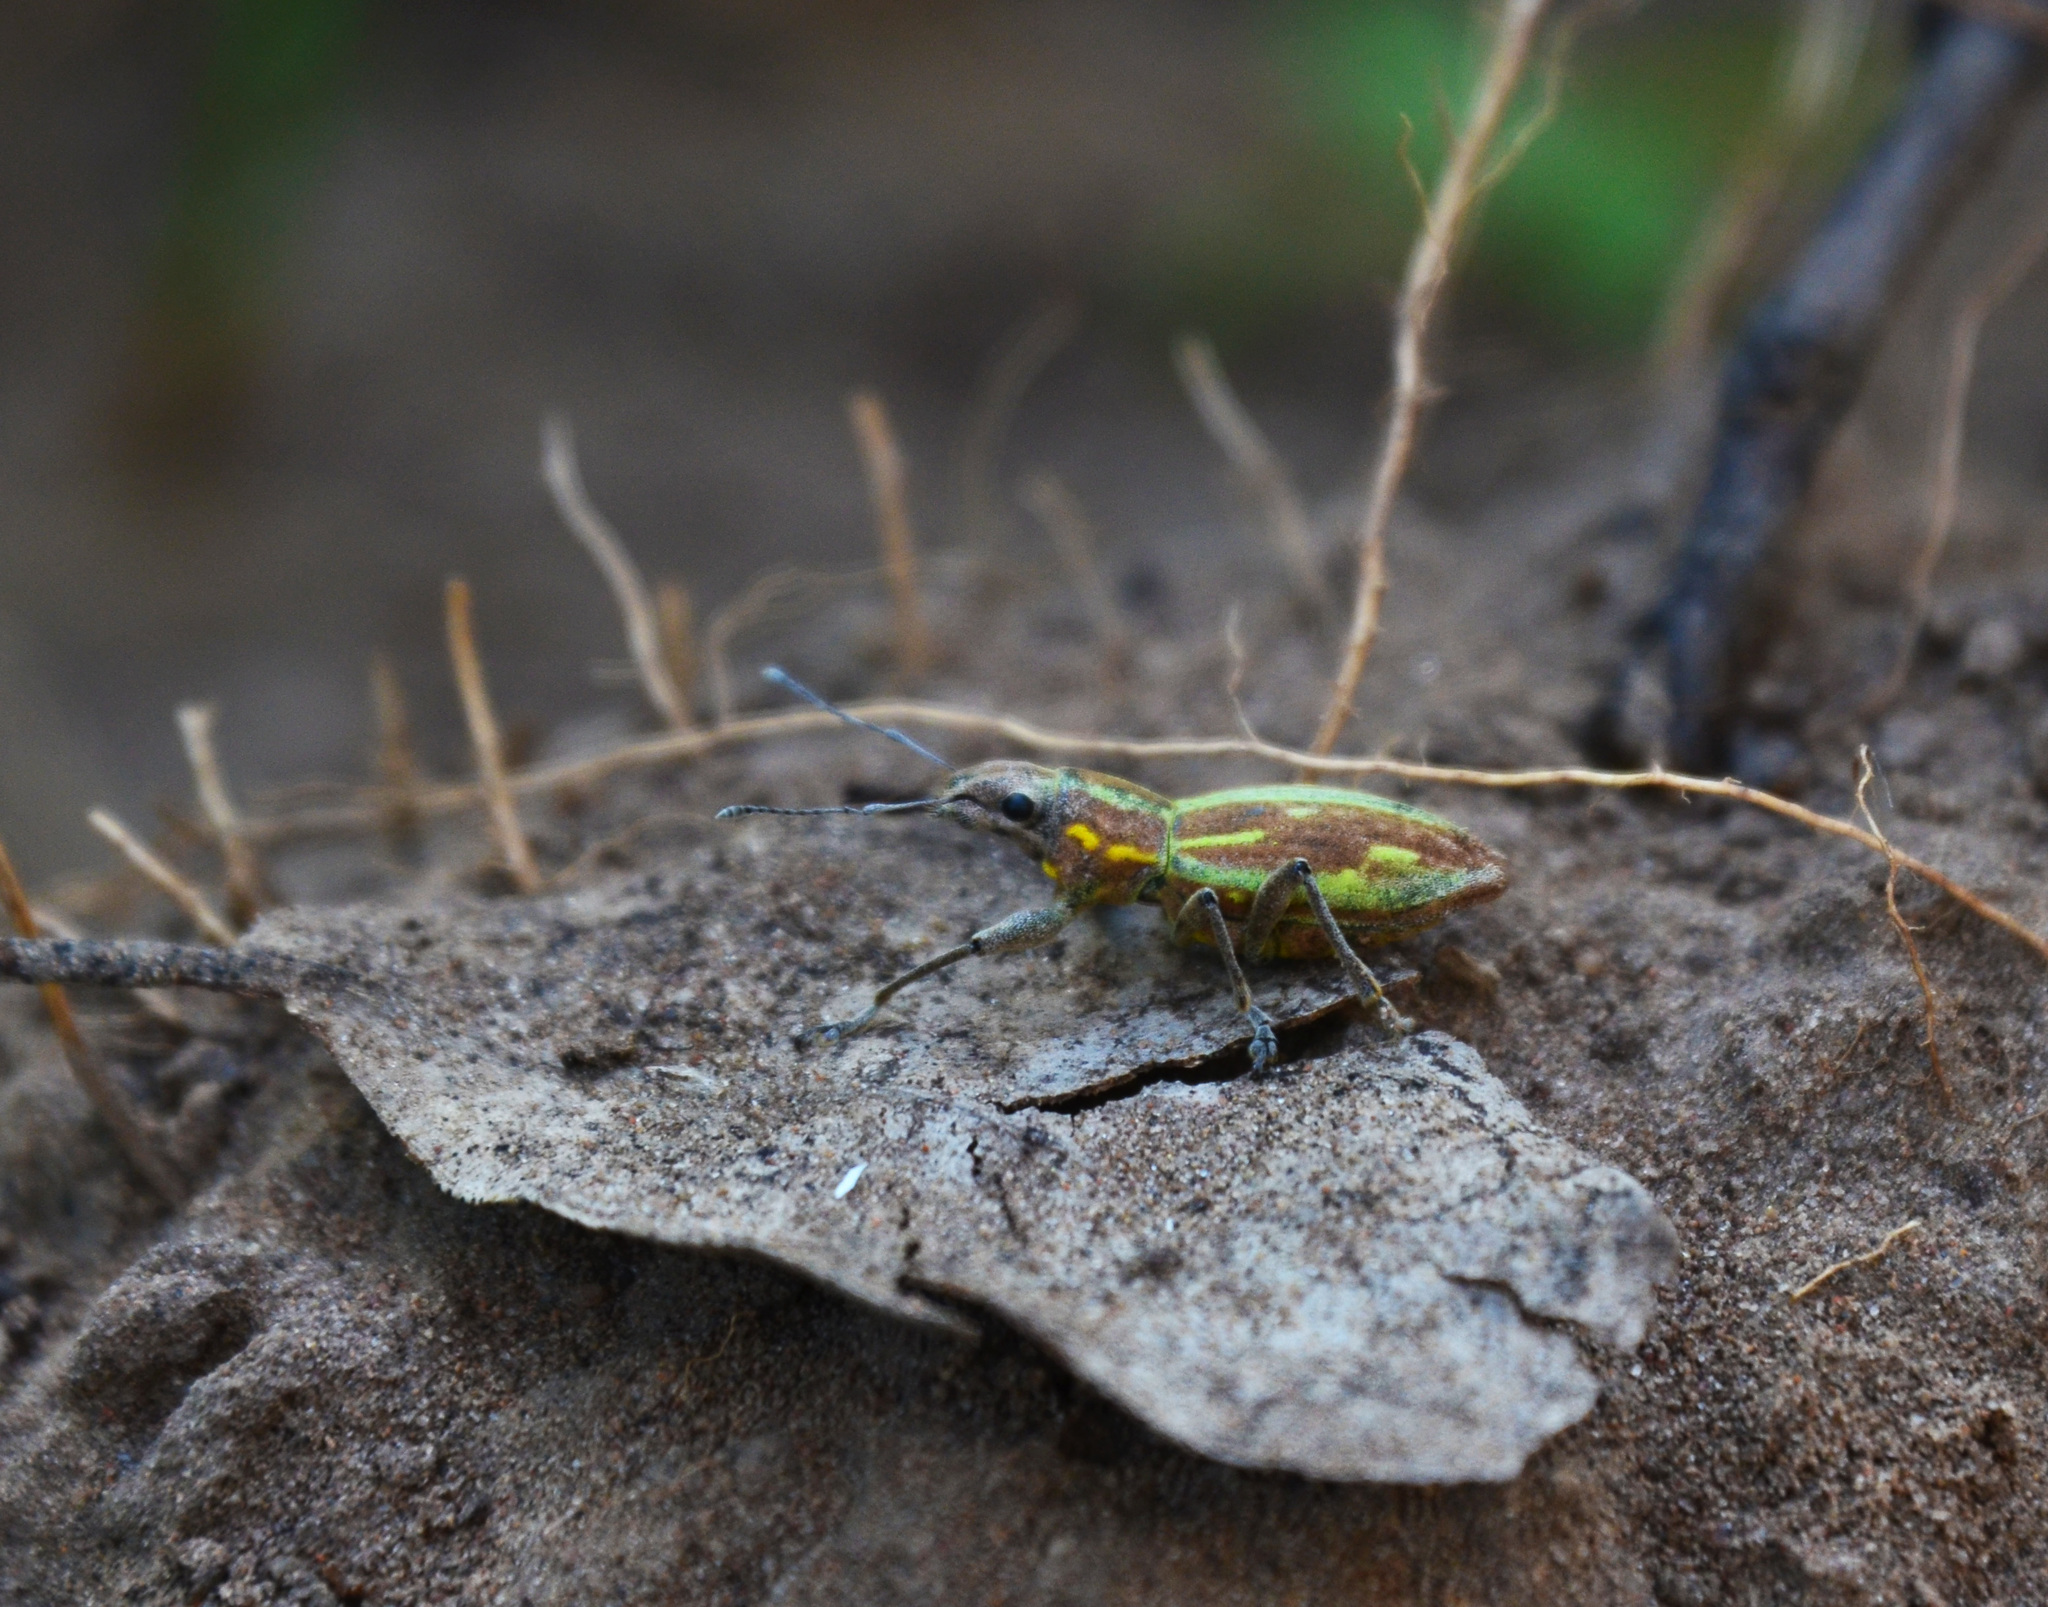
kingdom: Animalia
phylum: Arthropoda
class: Insecta
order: Coleoptera
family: Curculionidae
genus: Naupactus
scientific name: Naupactus xanthographus
